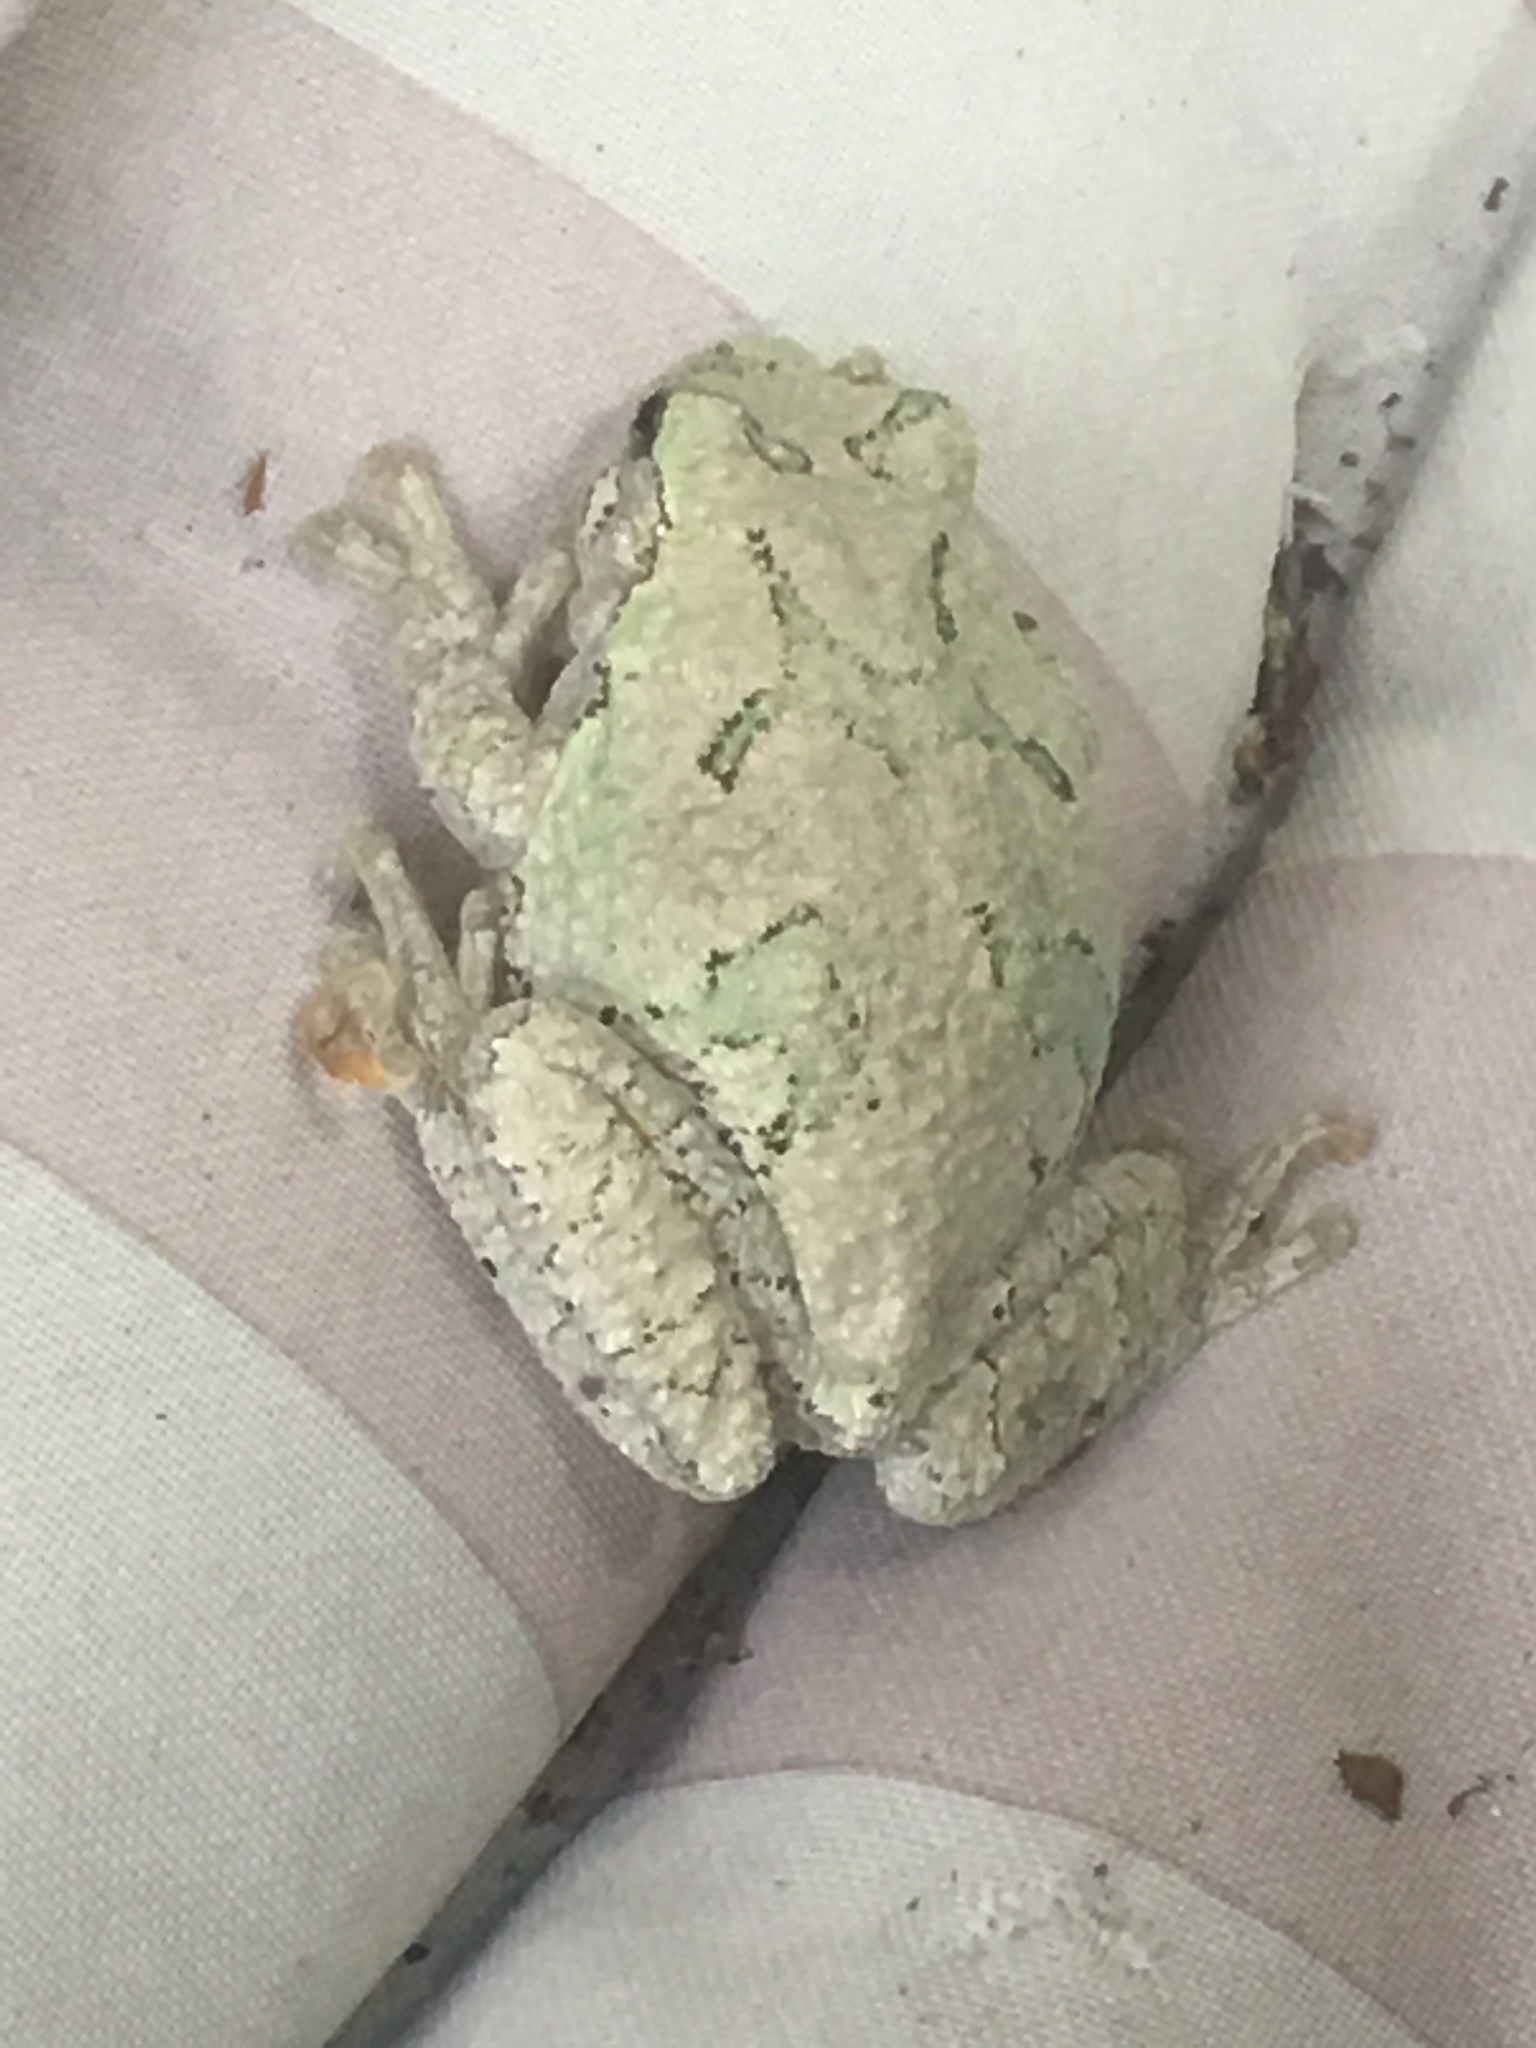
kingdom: Animalia
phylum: Chordata
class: Amphibia
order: Anura
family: Hylidae
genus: Dryophytes
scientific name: Dryophytes versicolor
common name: Gray treefrog
